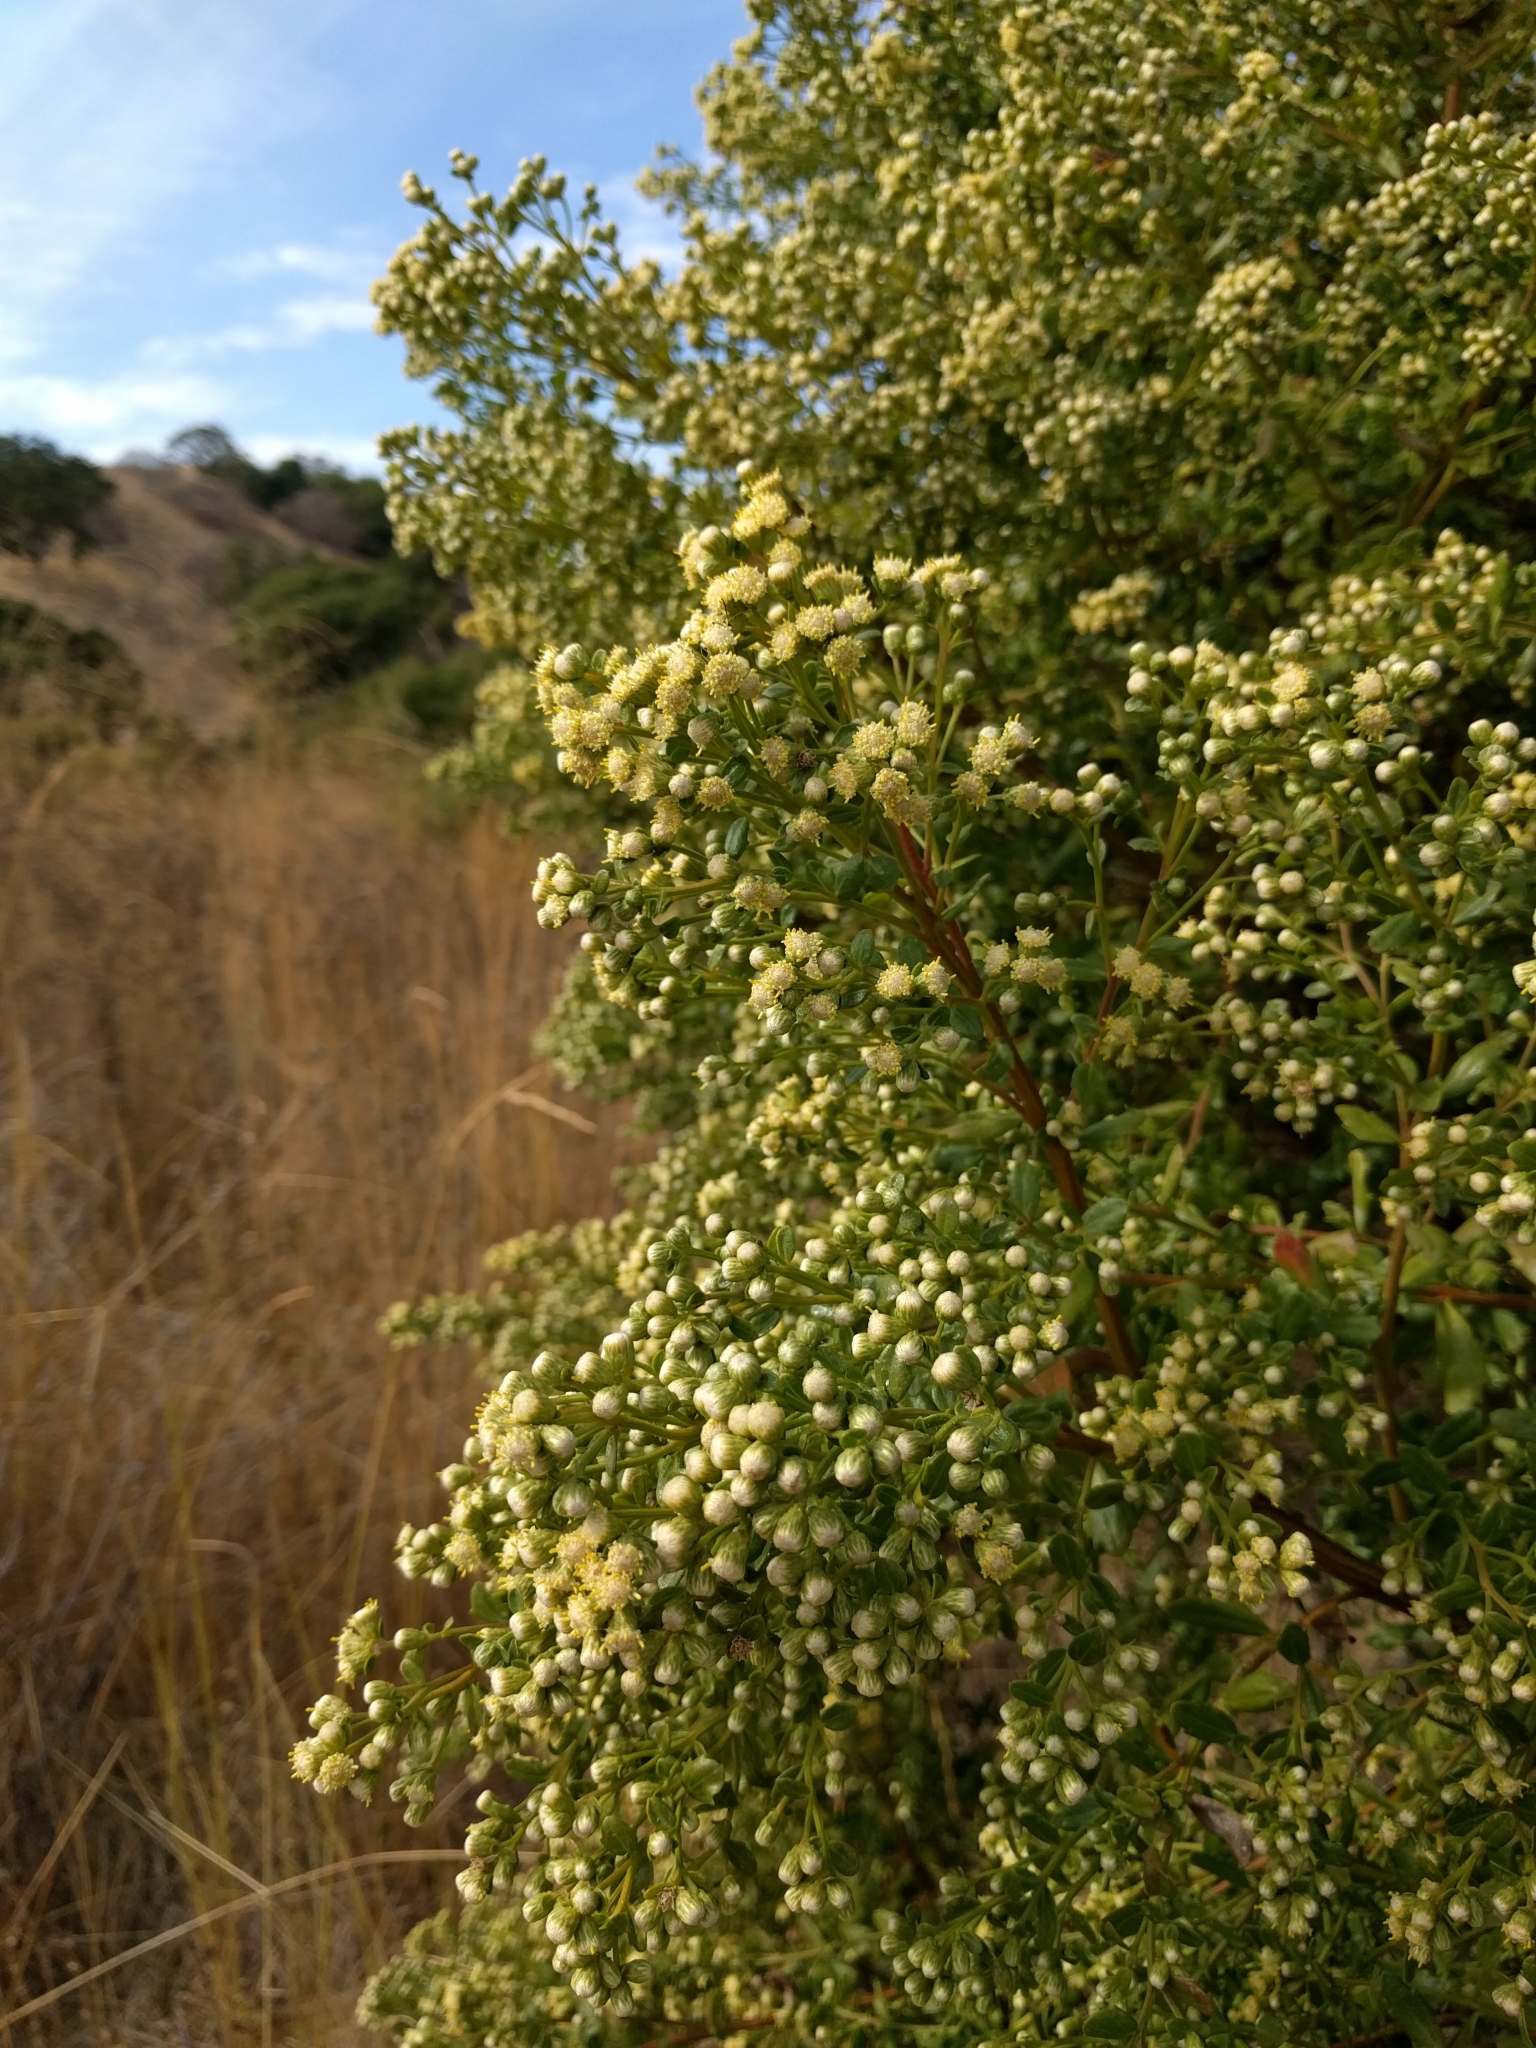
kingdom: Plantae
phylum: Tracheophyta
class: Magnoliopsida
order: Asterales
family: Asteraceae
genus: Baccharis
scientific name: Baccharis pilularis
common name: Coyotebrush
